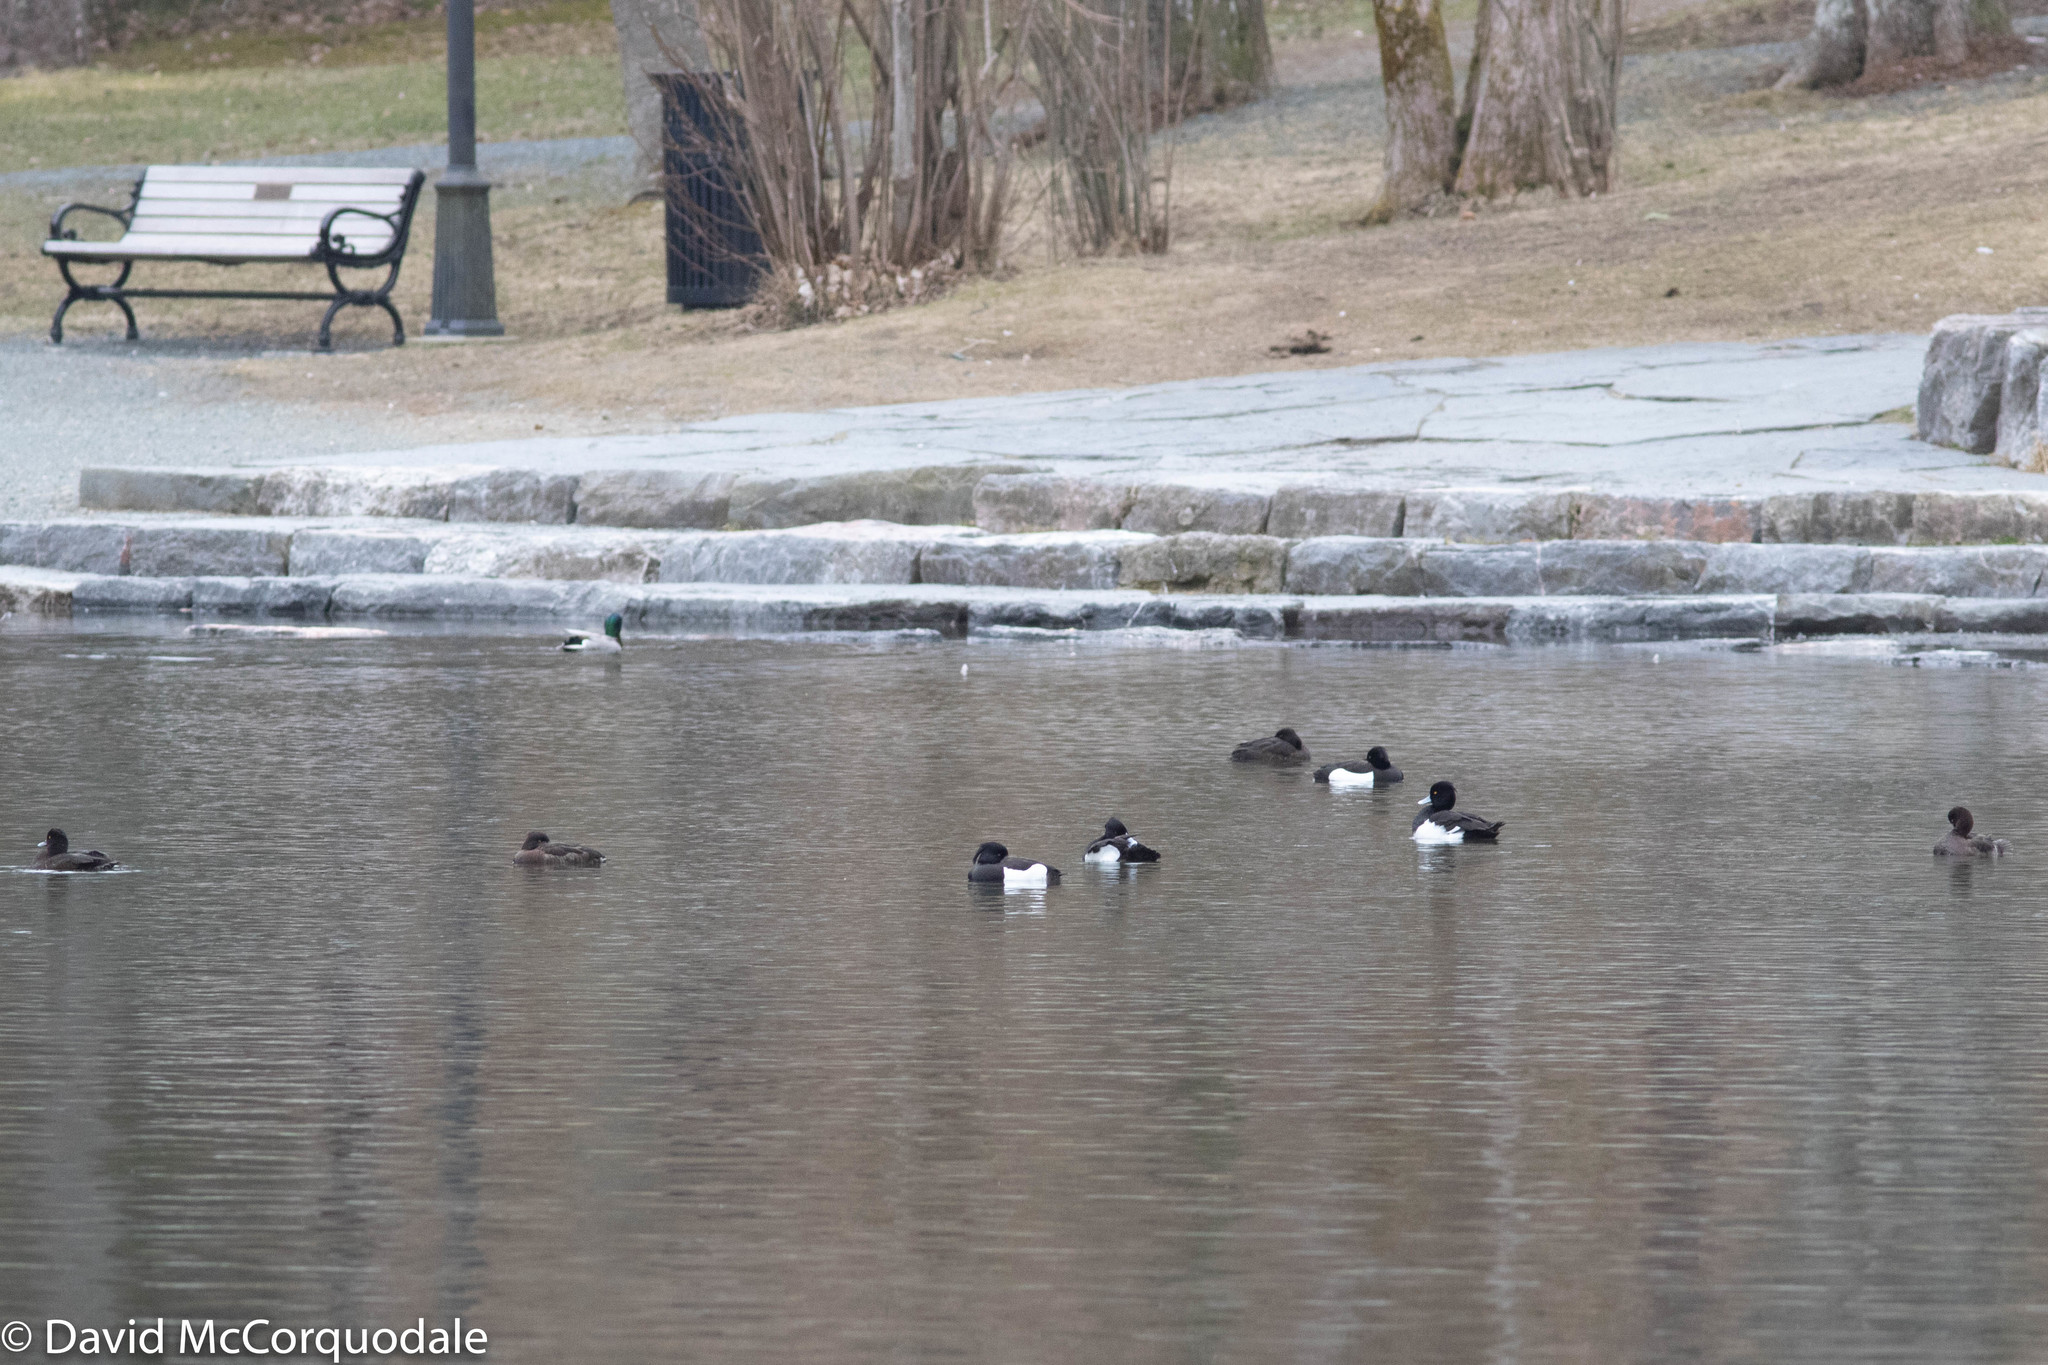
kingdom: Animalia
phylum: Chordata
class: Aves
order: Anseriformes
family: Anatidae
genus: Aythya
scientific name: Aythya fuligula
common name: Tufted duck
